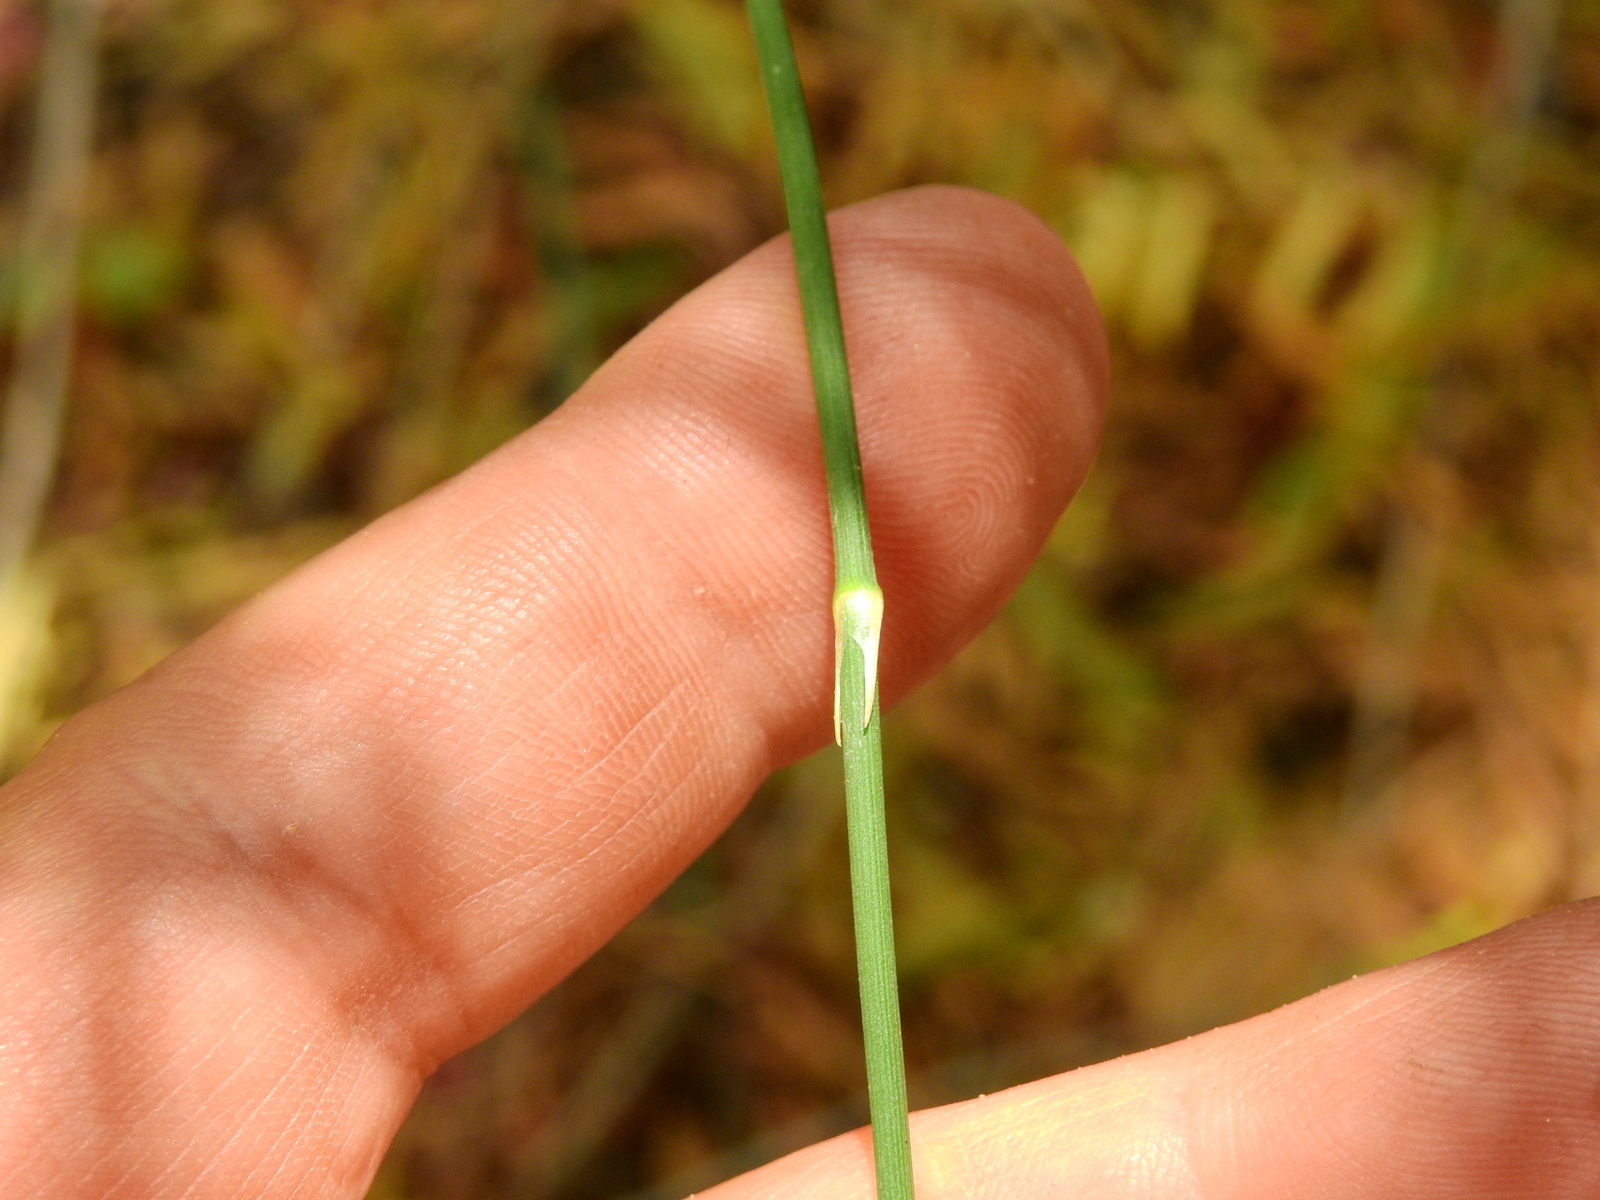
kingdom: Plantae
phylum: Tracheophyta
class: Gnetopsida
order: Ephedrales
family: Ephedraceae
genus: Ephedra
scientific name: Ephedra triandra
